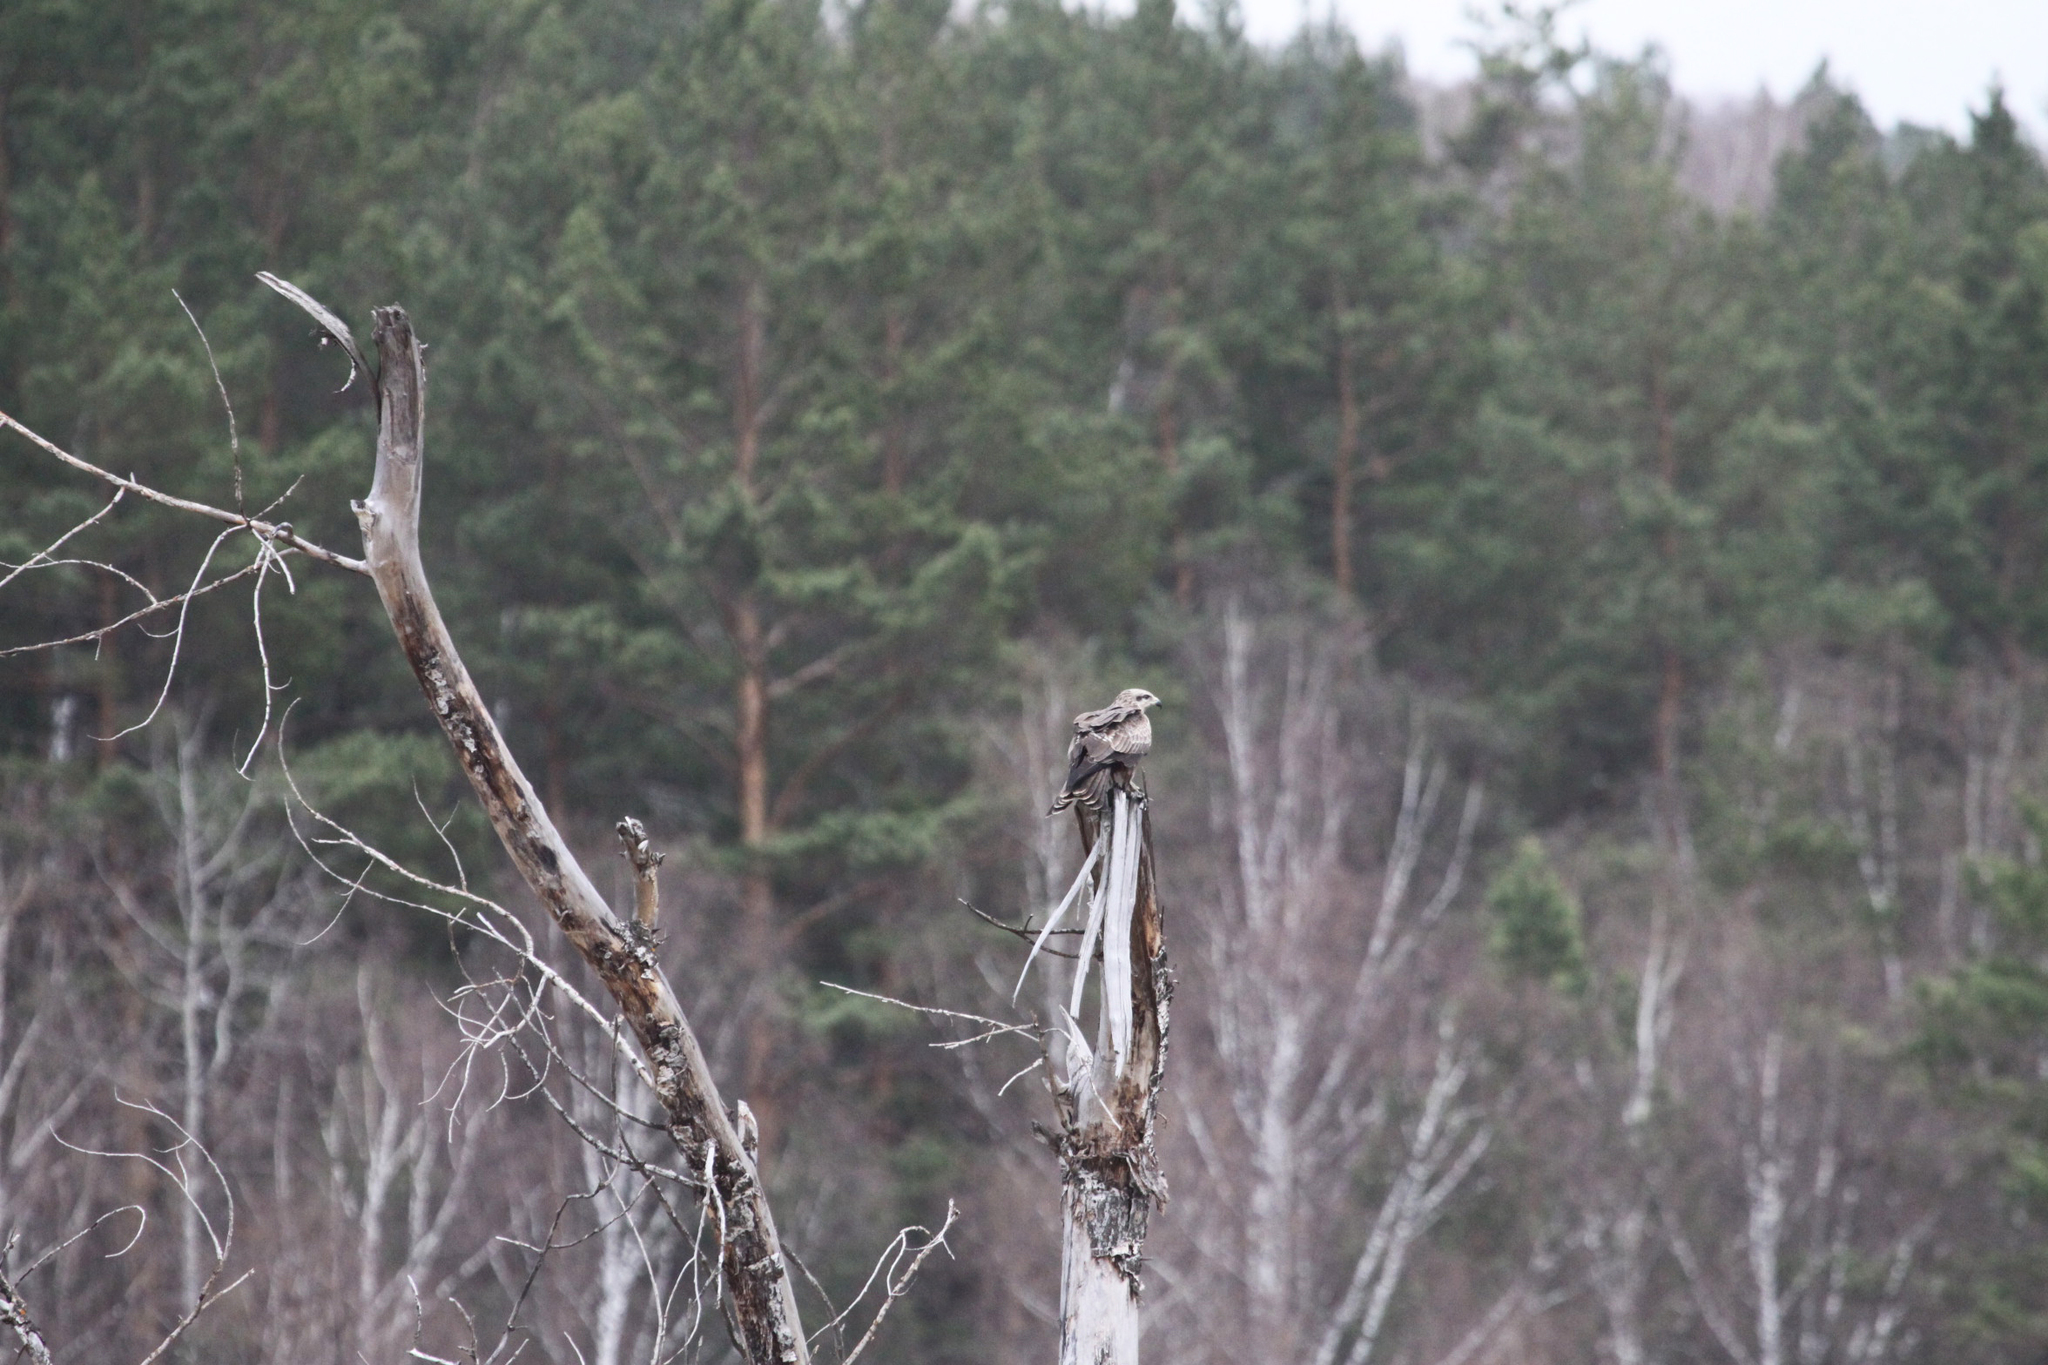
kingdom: Animalia
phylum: Chordata
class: Aves
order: Accipitriformes
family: Accipitridae
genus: Milvus
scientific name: Milvus migrans
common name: Black kite
